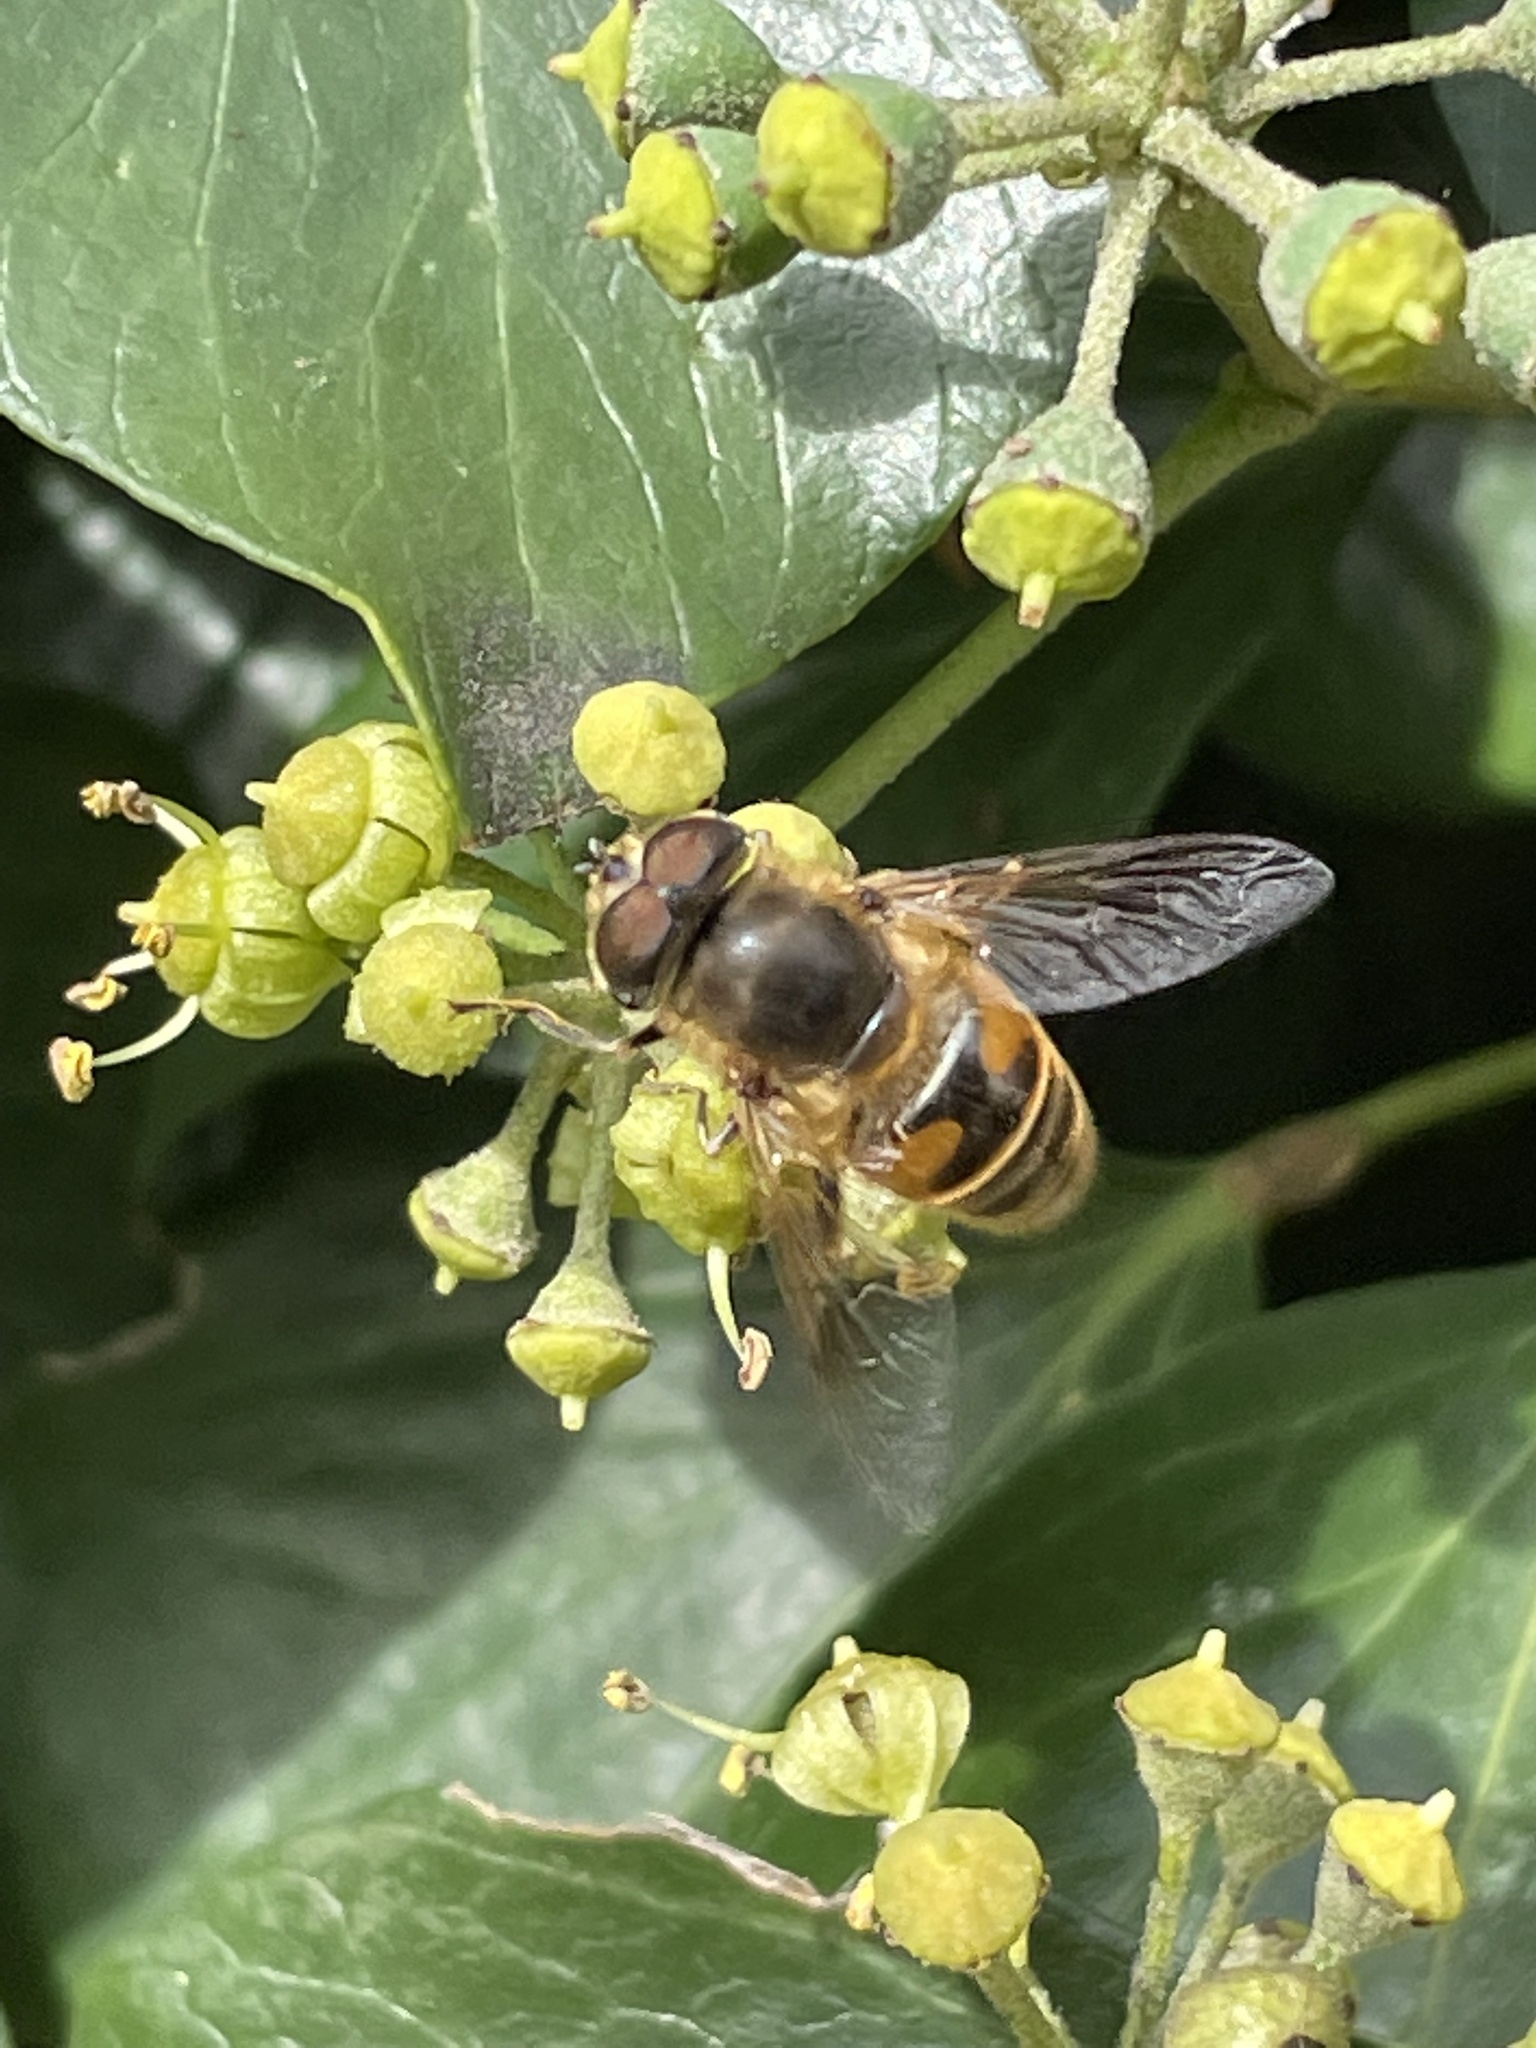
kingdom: Animalia
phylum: Arthropoda
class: Insecta
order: Diptera
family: Syrphidae
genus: Eristalis
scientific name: Eristalis tenax
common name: Drone fly
